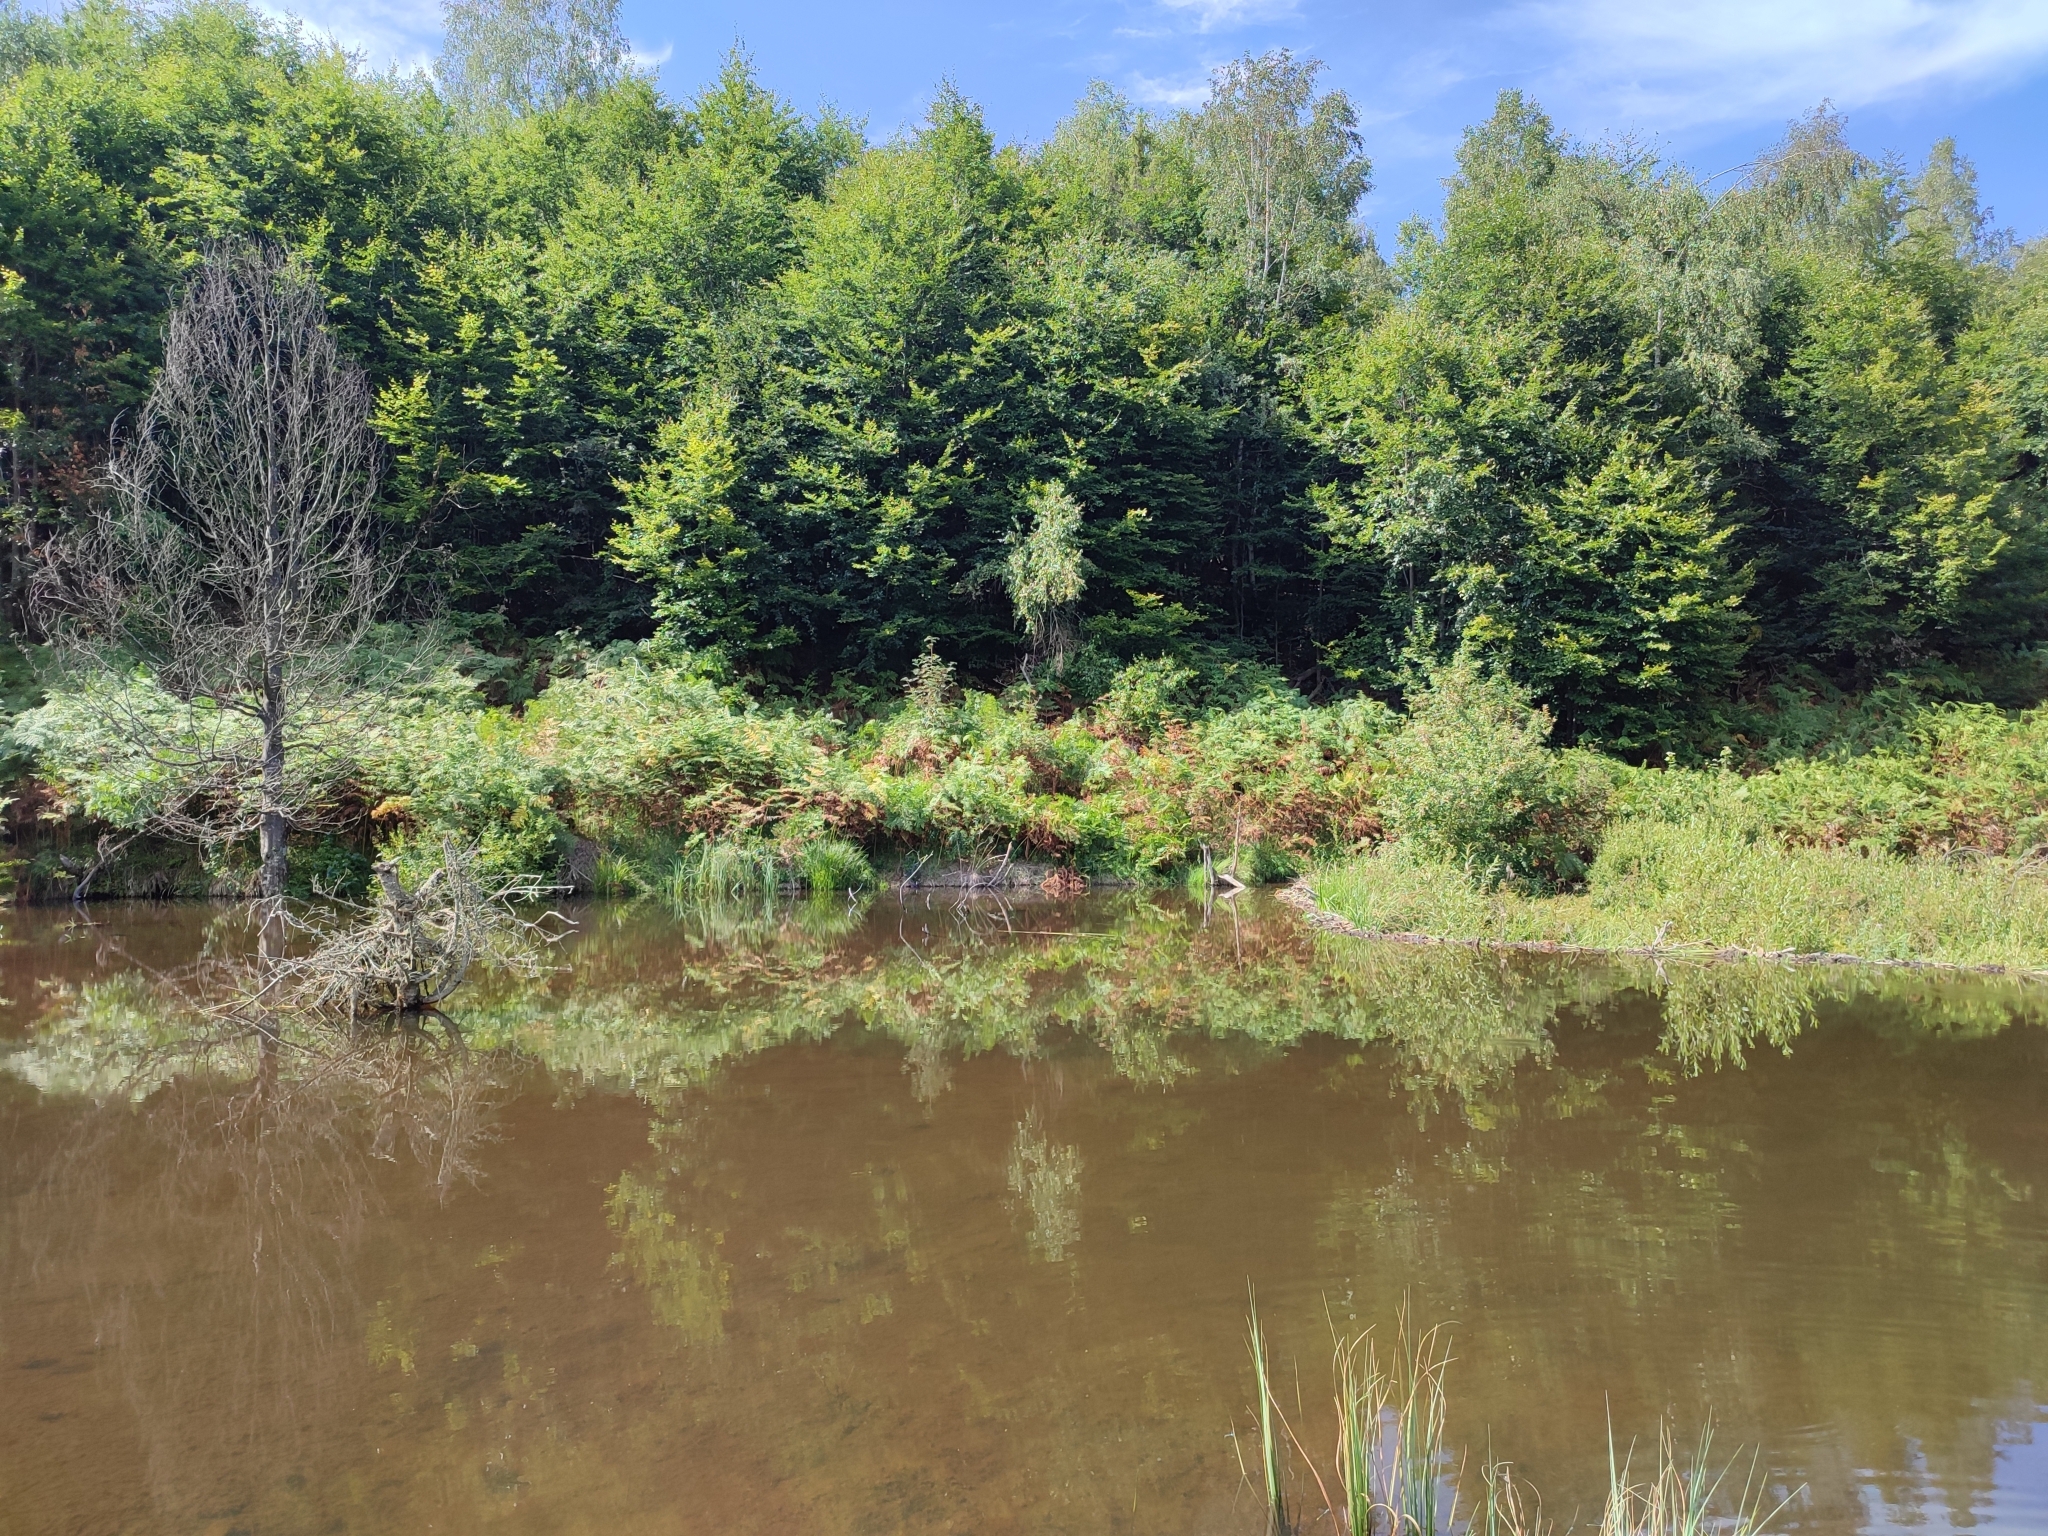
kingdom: Animalia
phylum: Chordata
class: Mammalia
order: Rodentia
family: Castoridae
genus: Castor
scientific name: Castor fiber
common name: Eurasian beaver
